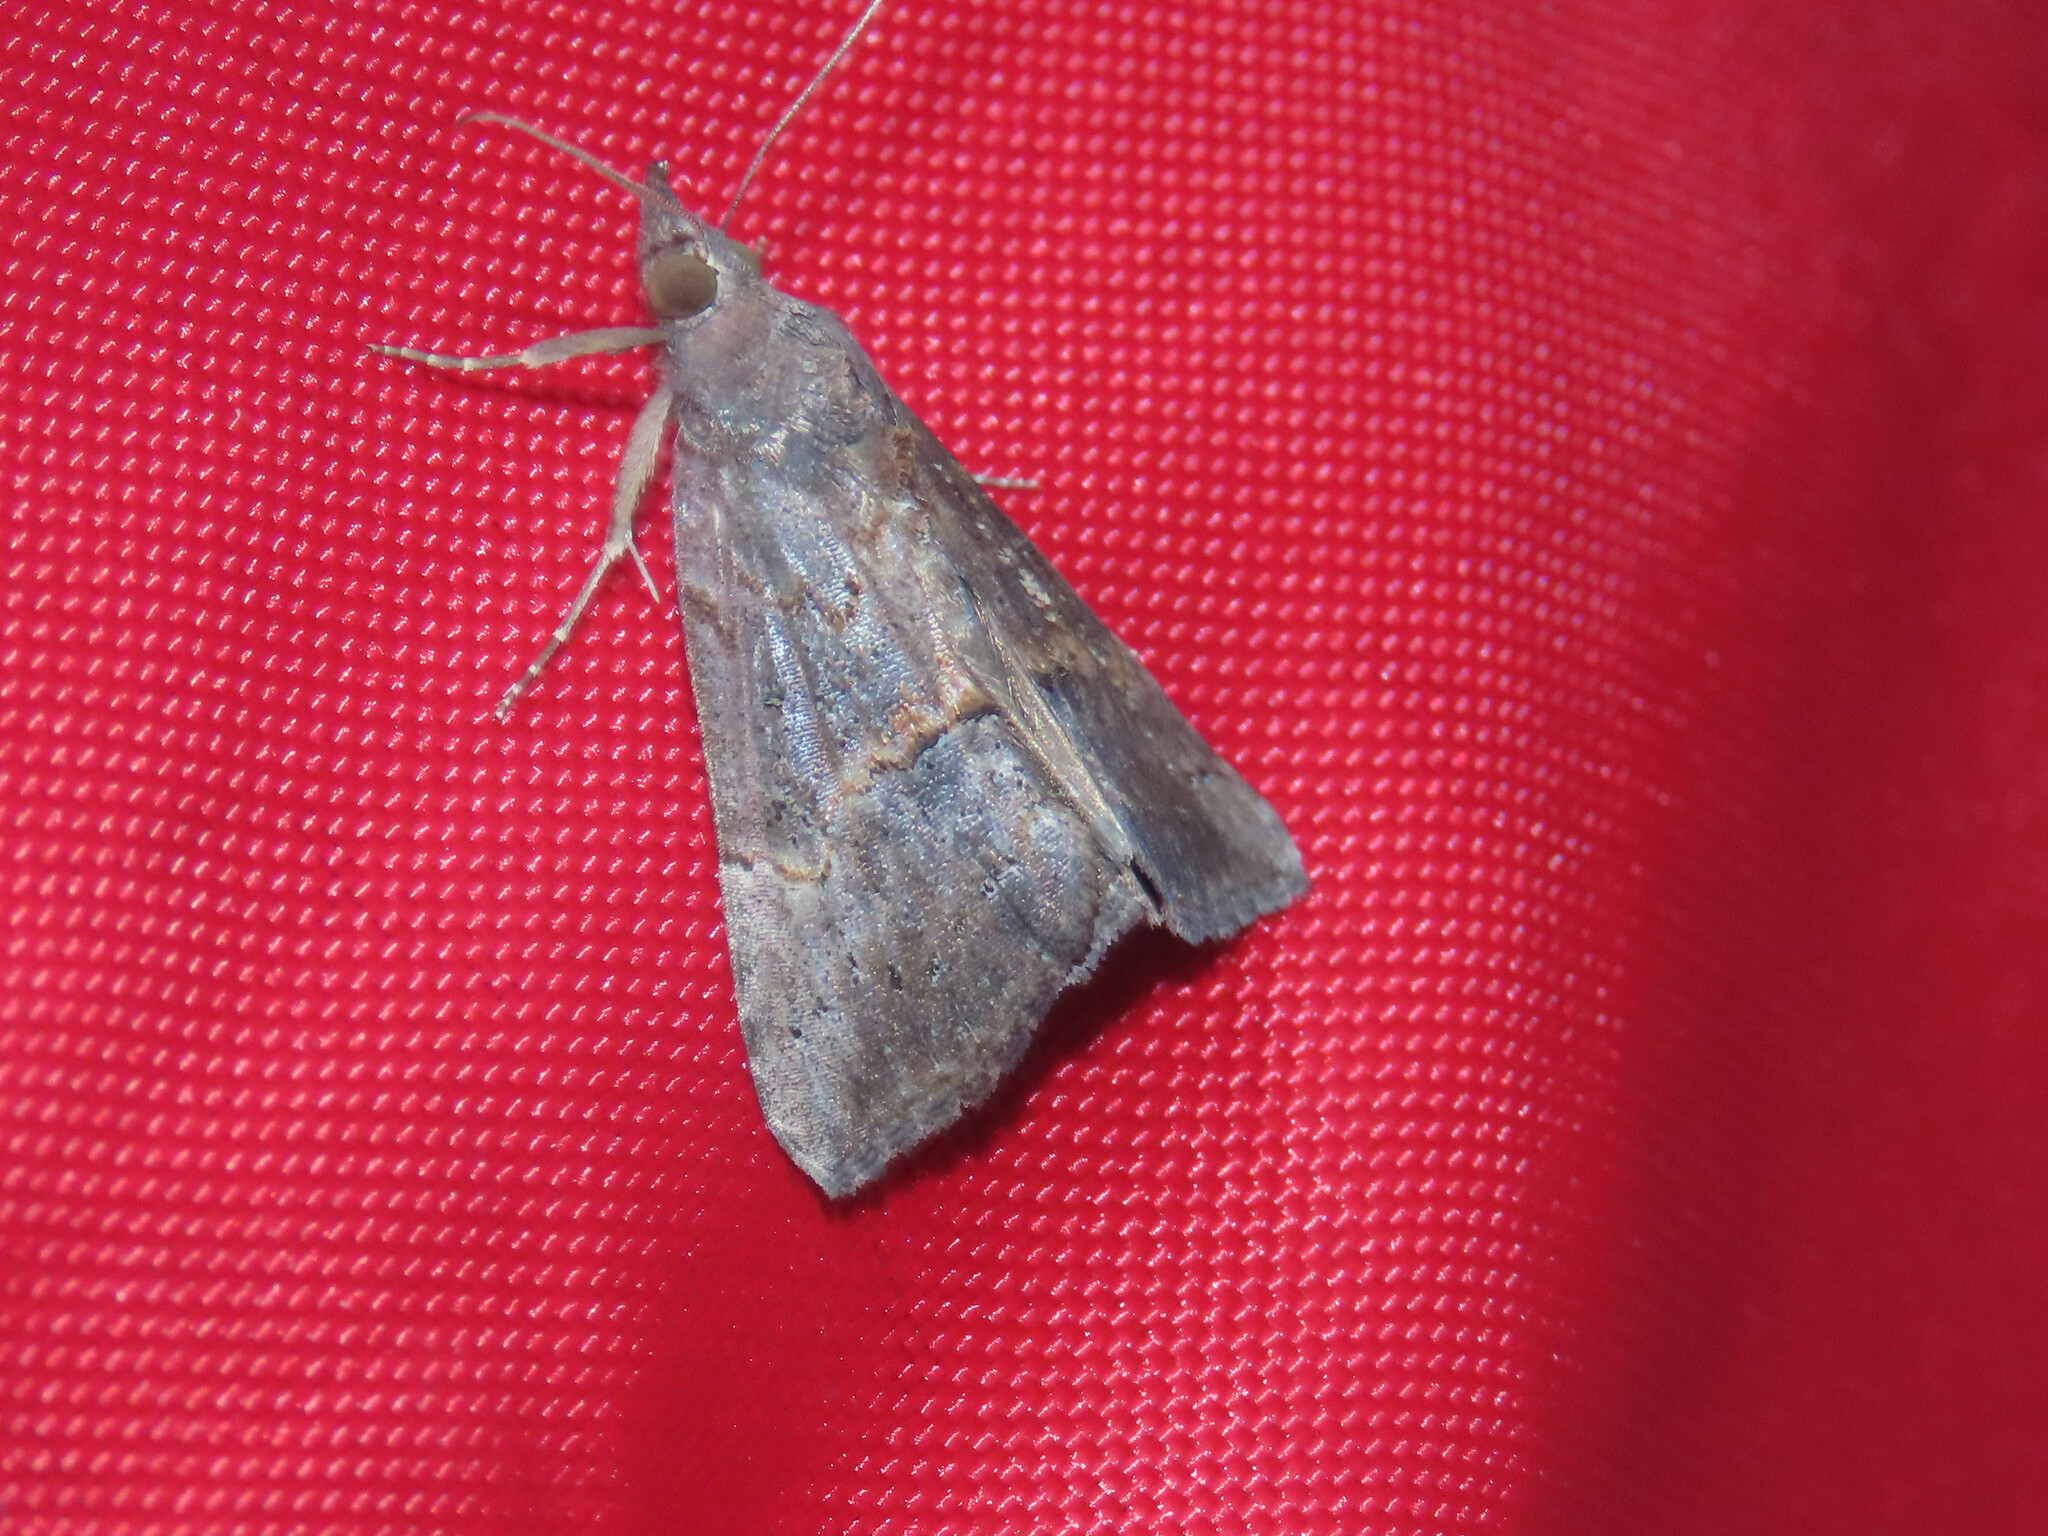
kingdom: Animalia
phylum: Arthropoda
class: Insecta
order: Lepidoptera
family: Erebidae
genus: Hypena
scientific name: Hypena scabra
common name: Green cloverworm
